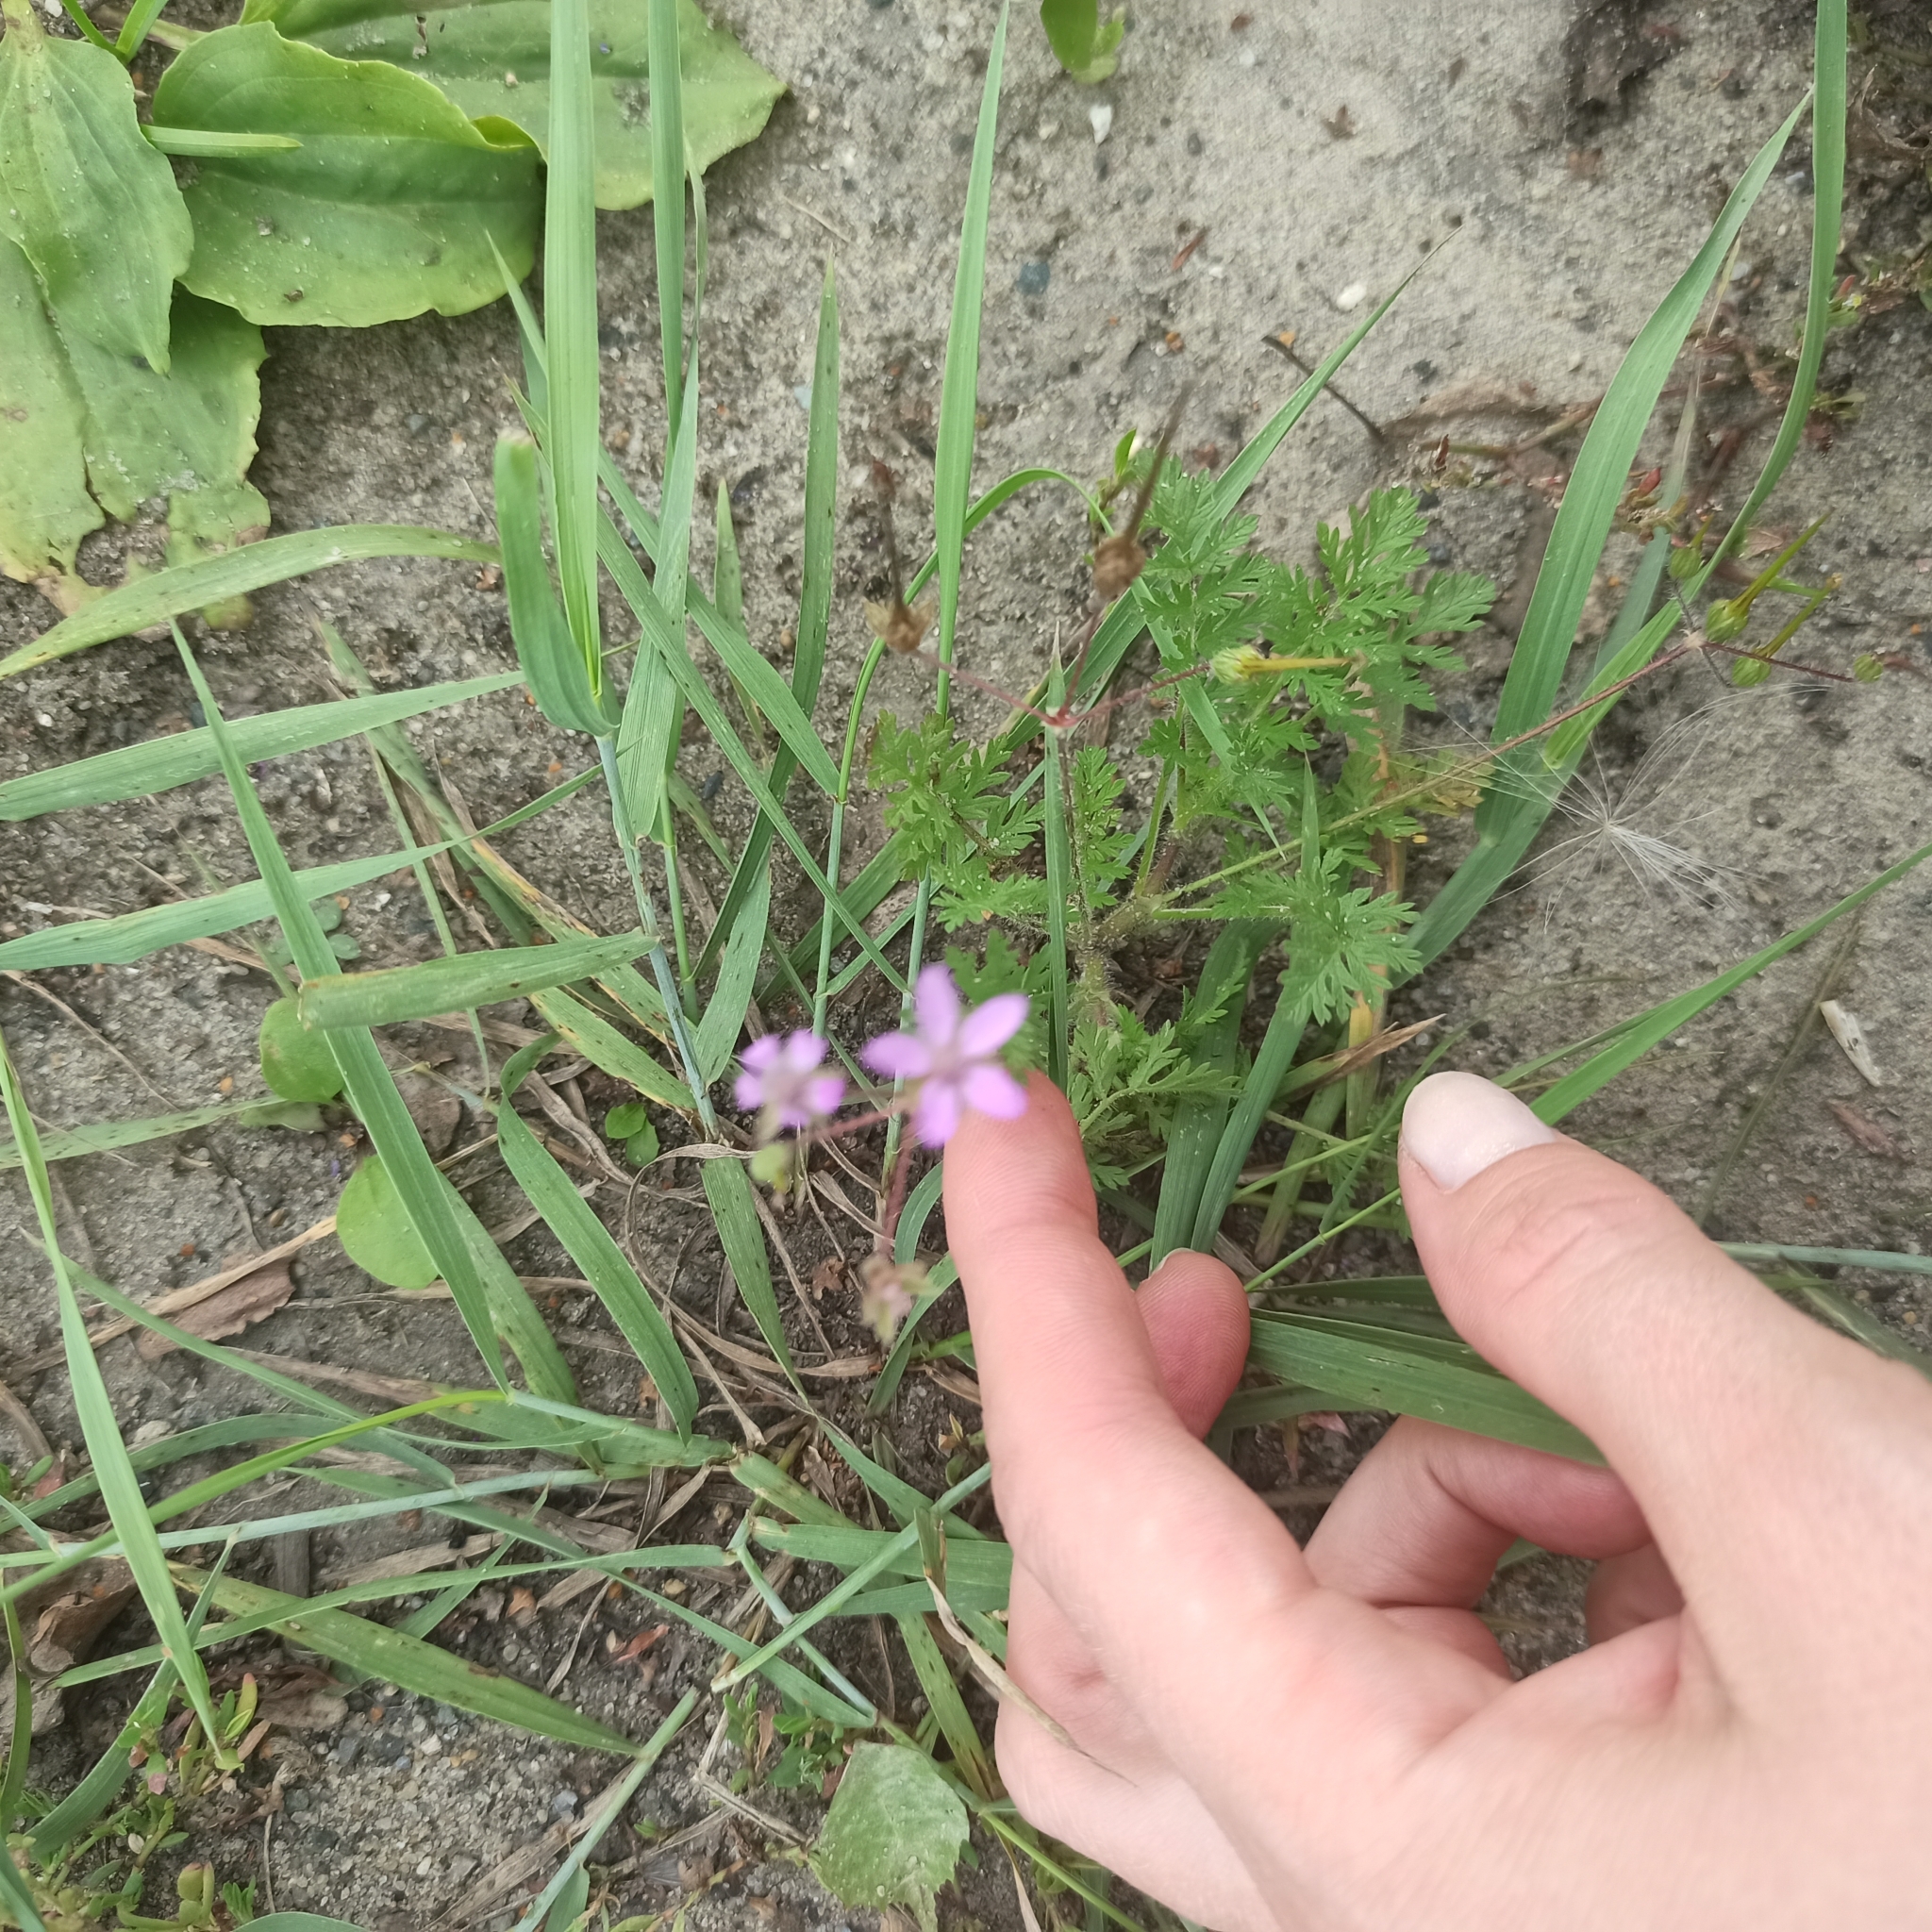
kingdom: Plantae
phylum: Tracheophyta
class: Magnoliopsida
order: Geraniales
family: Geraniaceae
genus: Erodium
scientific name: Erodium cicutarium
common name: Common stork's-bill
